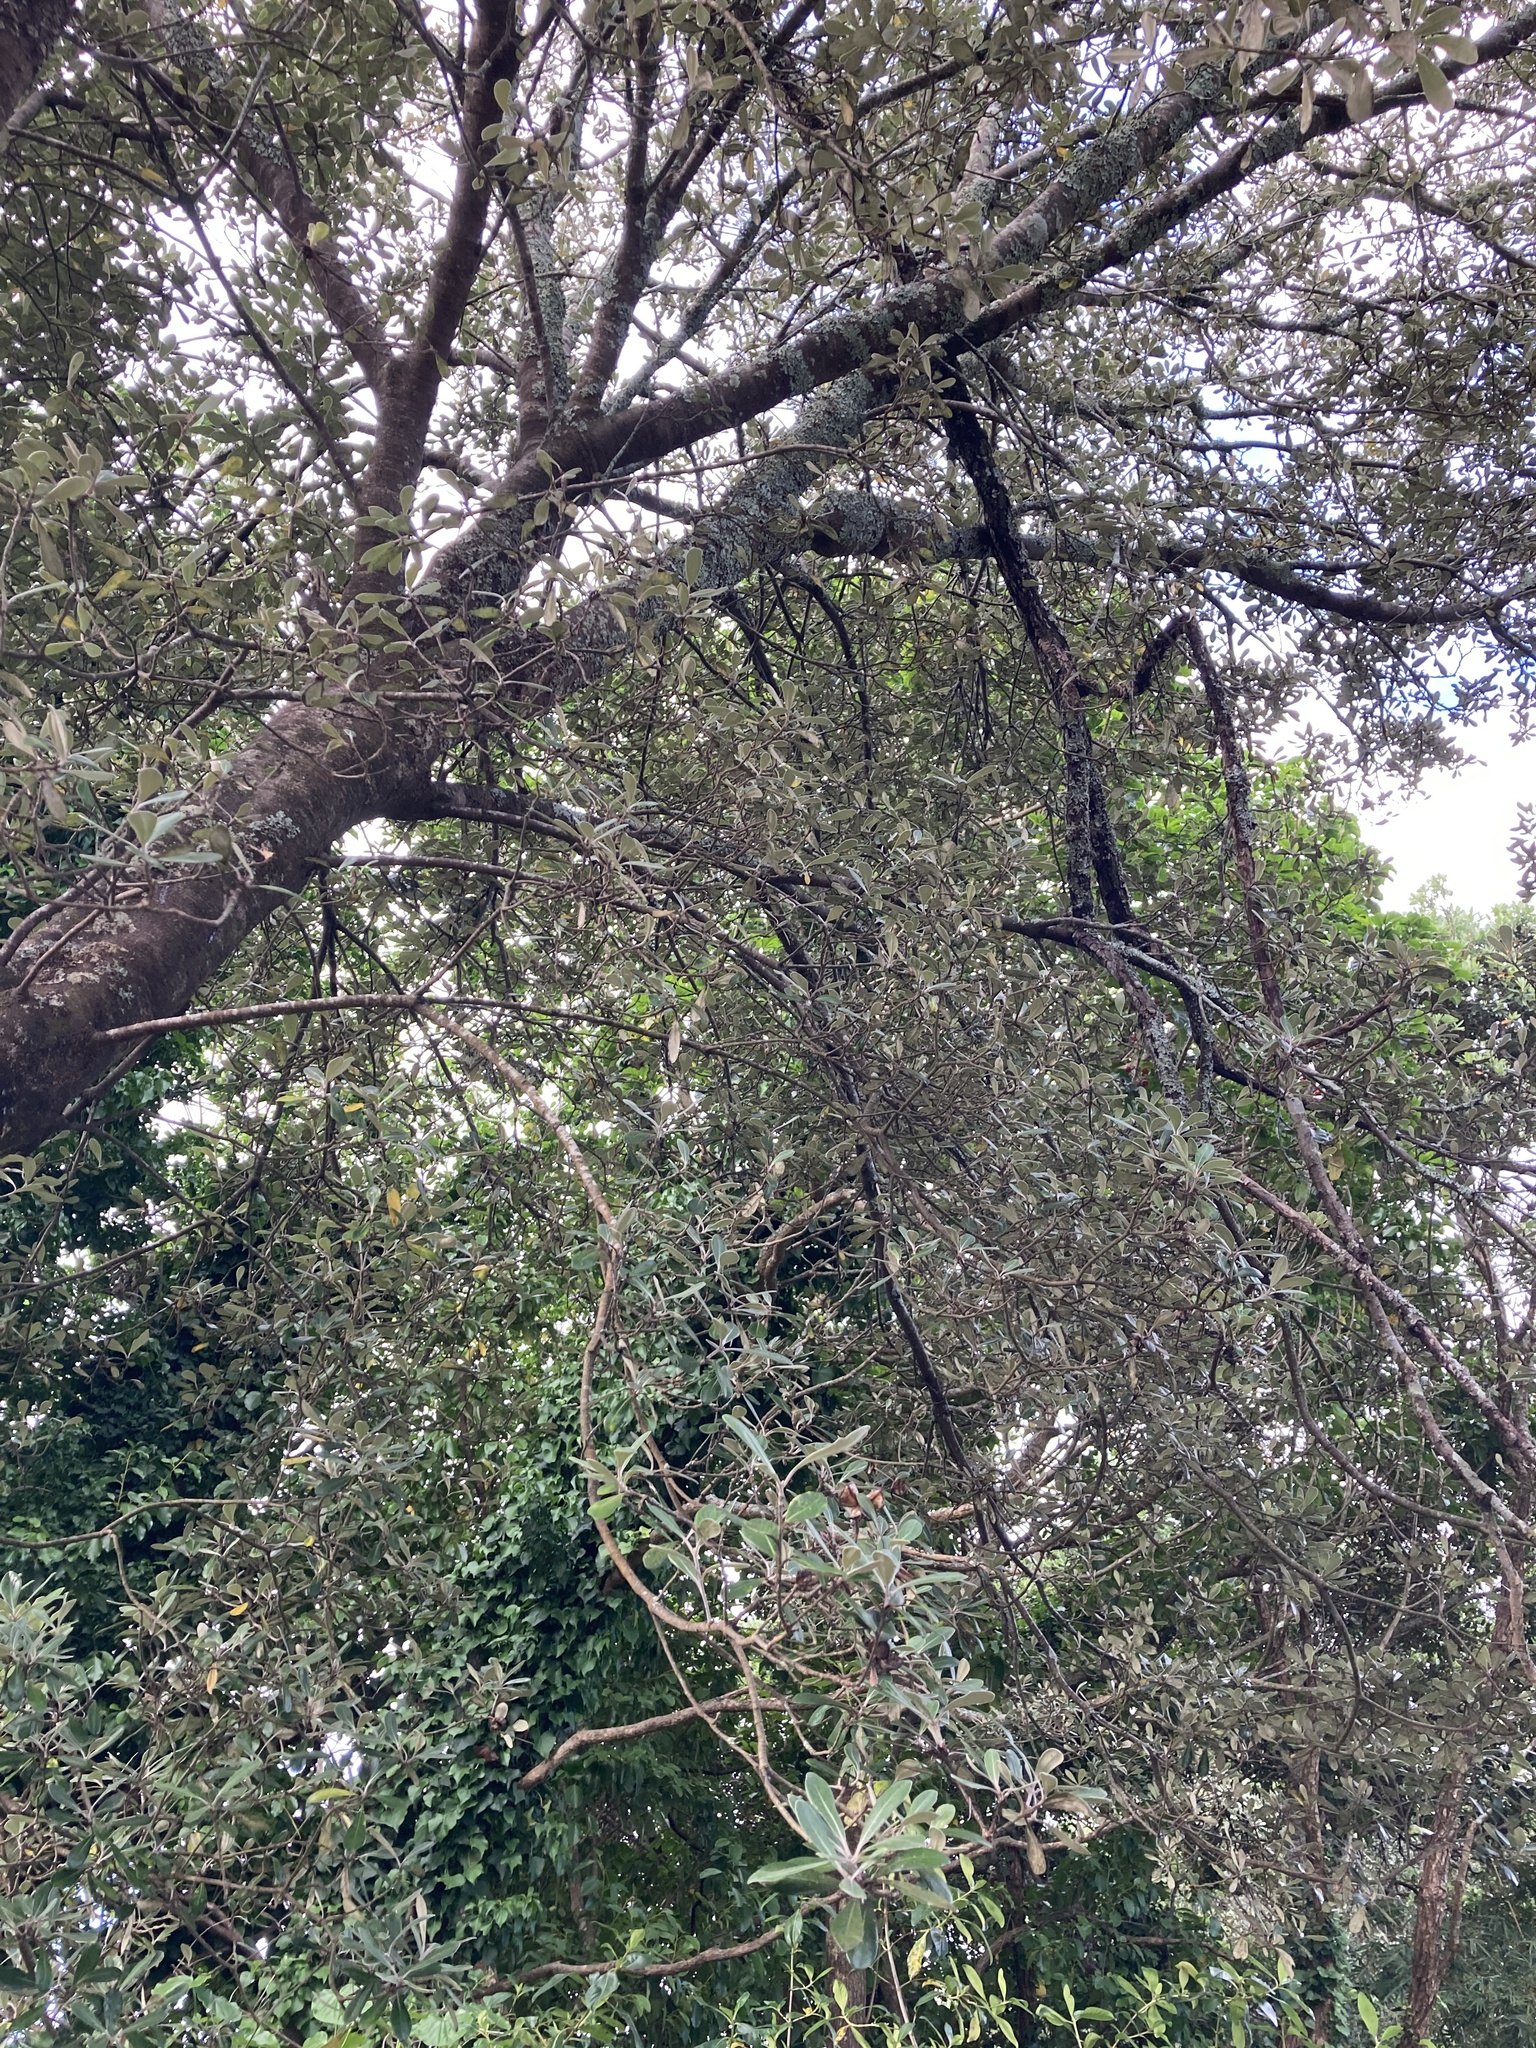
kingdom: Plantae
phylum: Tracheophyta
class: Magnoliopsida
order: Apiales
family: Pittosporaceae
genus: Pittosporum
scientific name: Pittosporum crassifolium
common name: Karo
